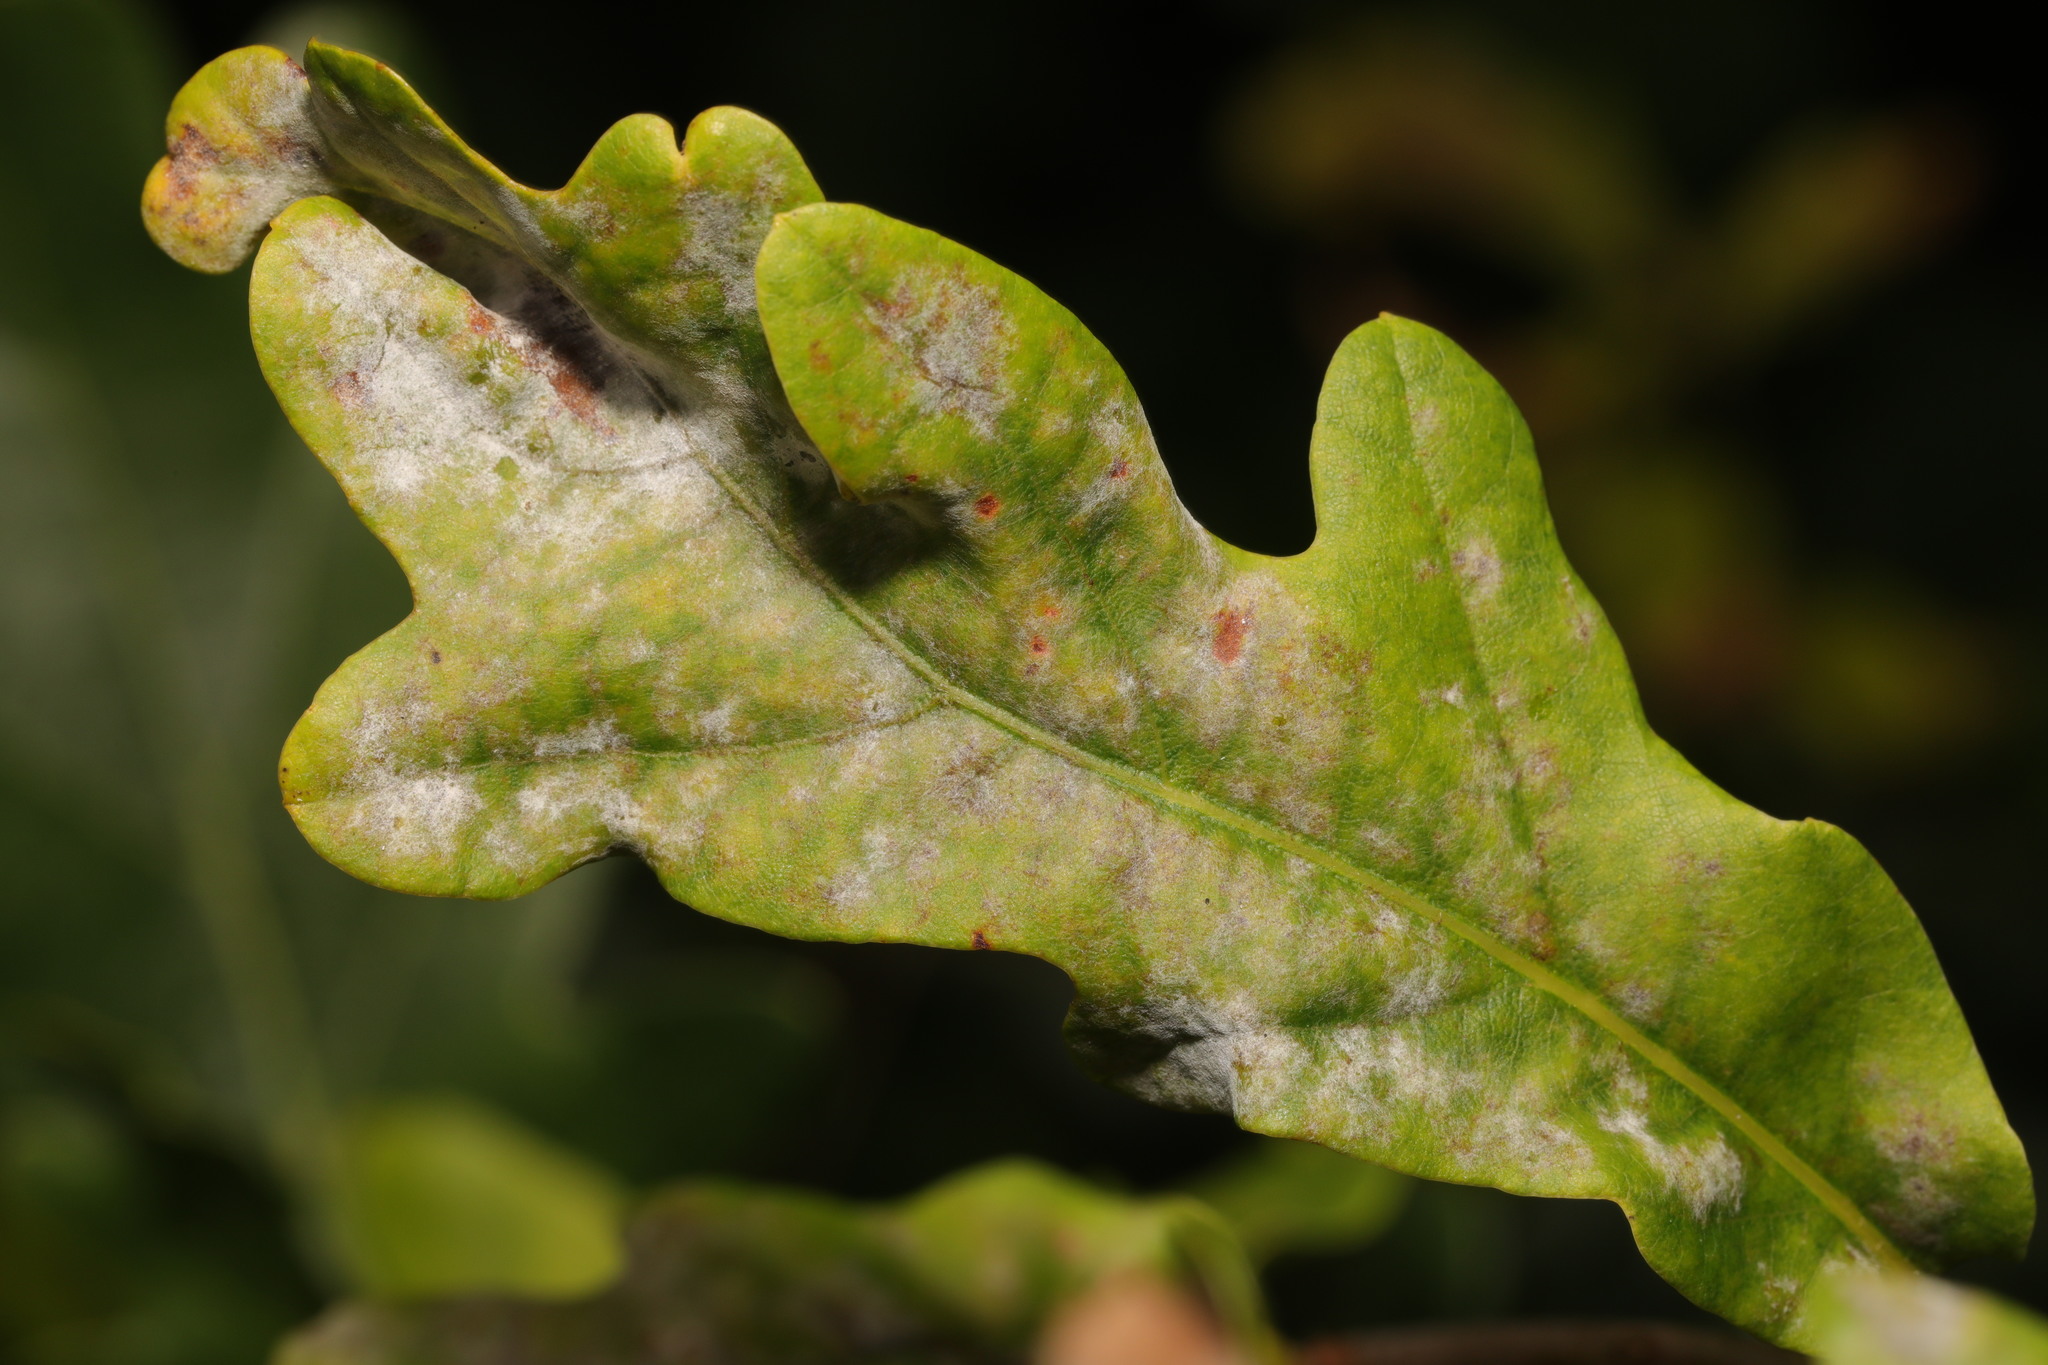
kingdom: Fungi
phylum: Ascomycota
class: Leotiomycetes
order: Helotiales
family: Erysiphaceae
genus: Erysiphe
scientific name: Erysiphe alphitoides
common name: Oak mildew
